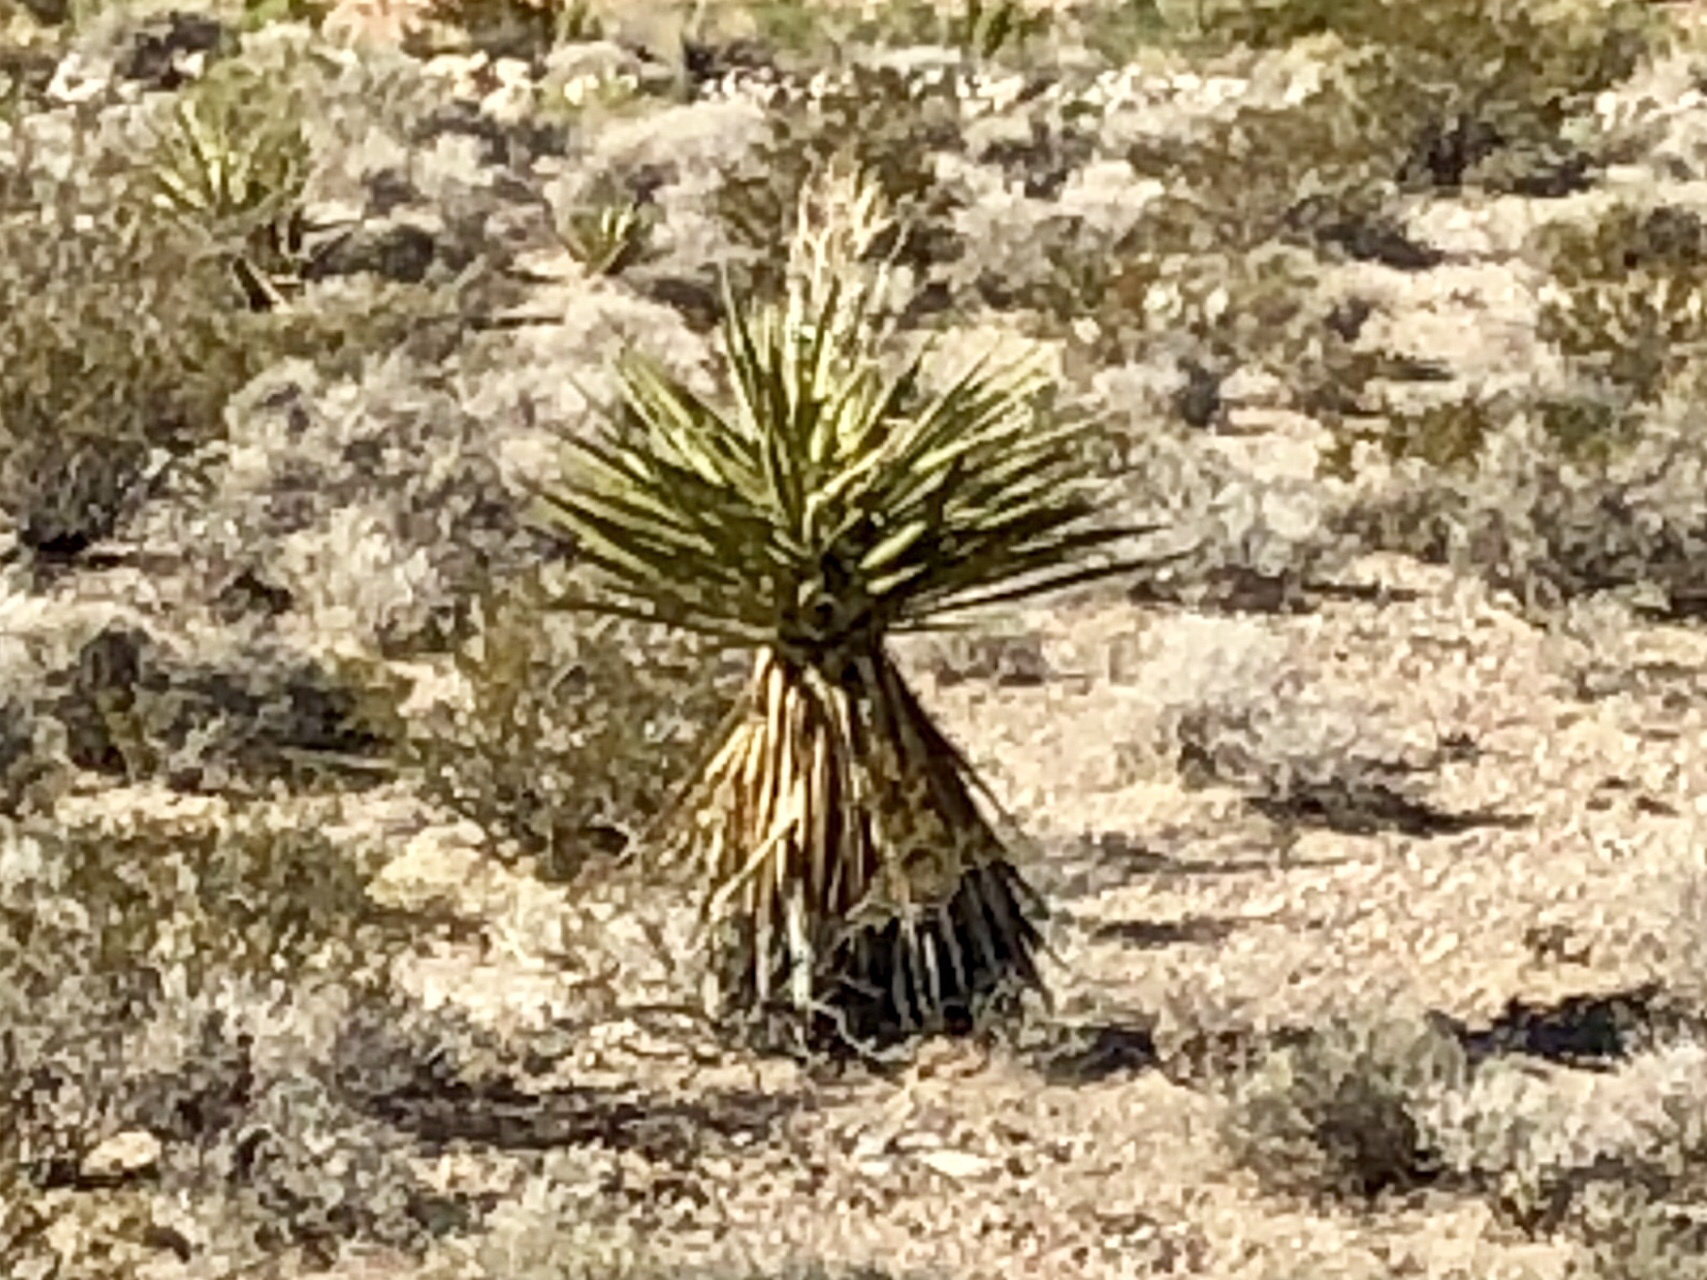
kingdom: Plantae
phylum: Tracheophyta
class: Liliopsida
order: Asparagales
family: Asparagaceae
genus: Yucca
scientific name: Yucca schidigera
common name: Mojave yucca
